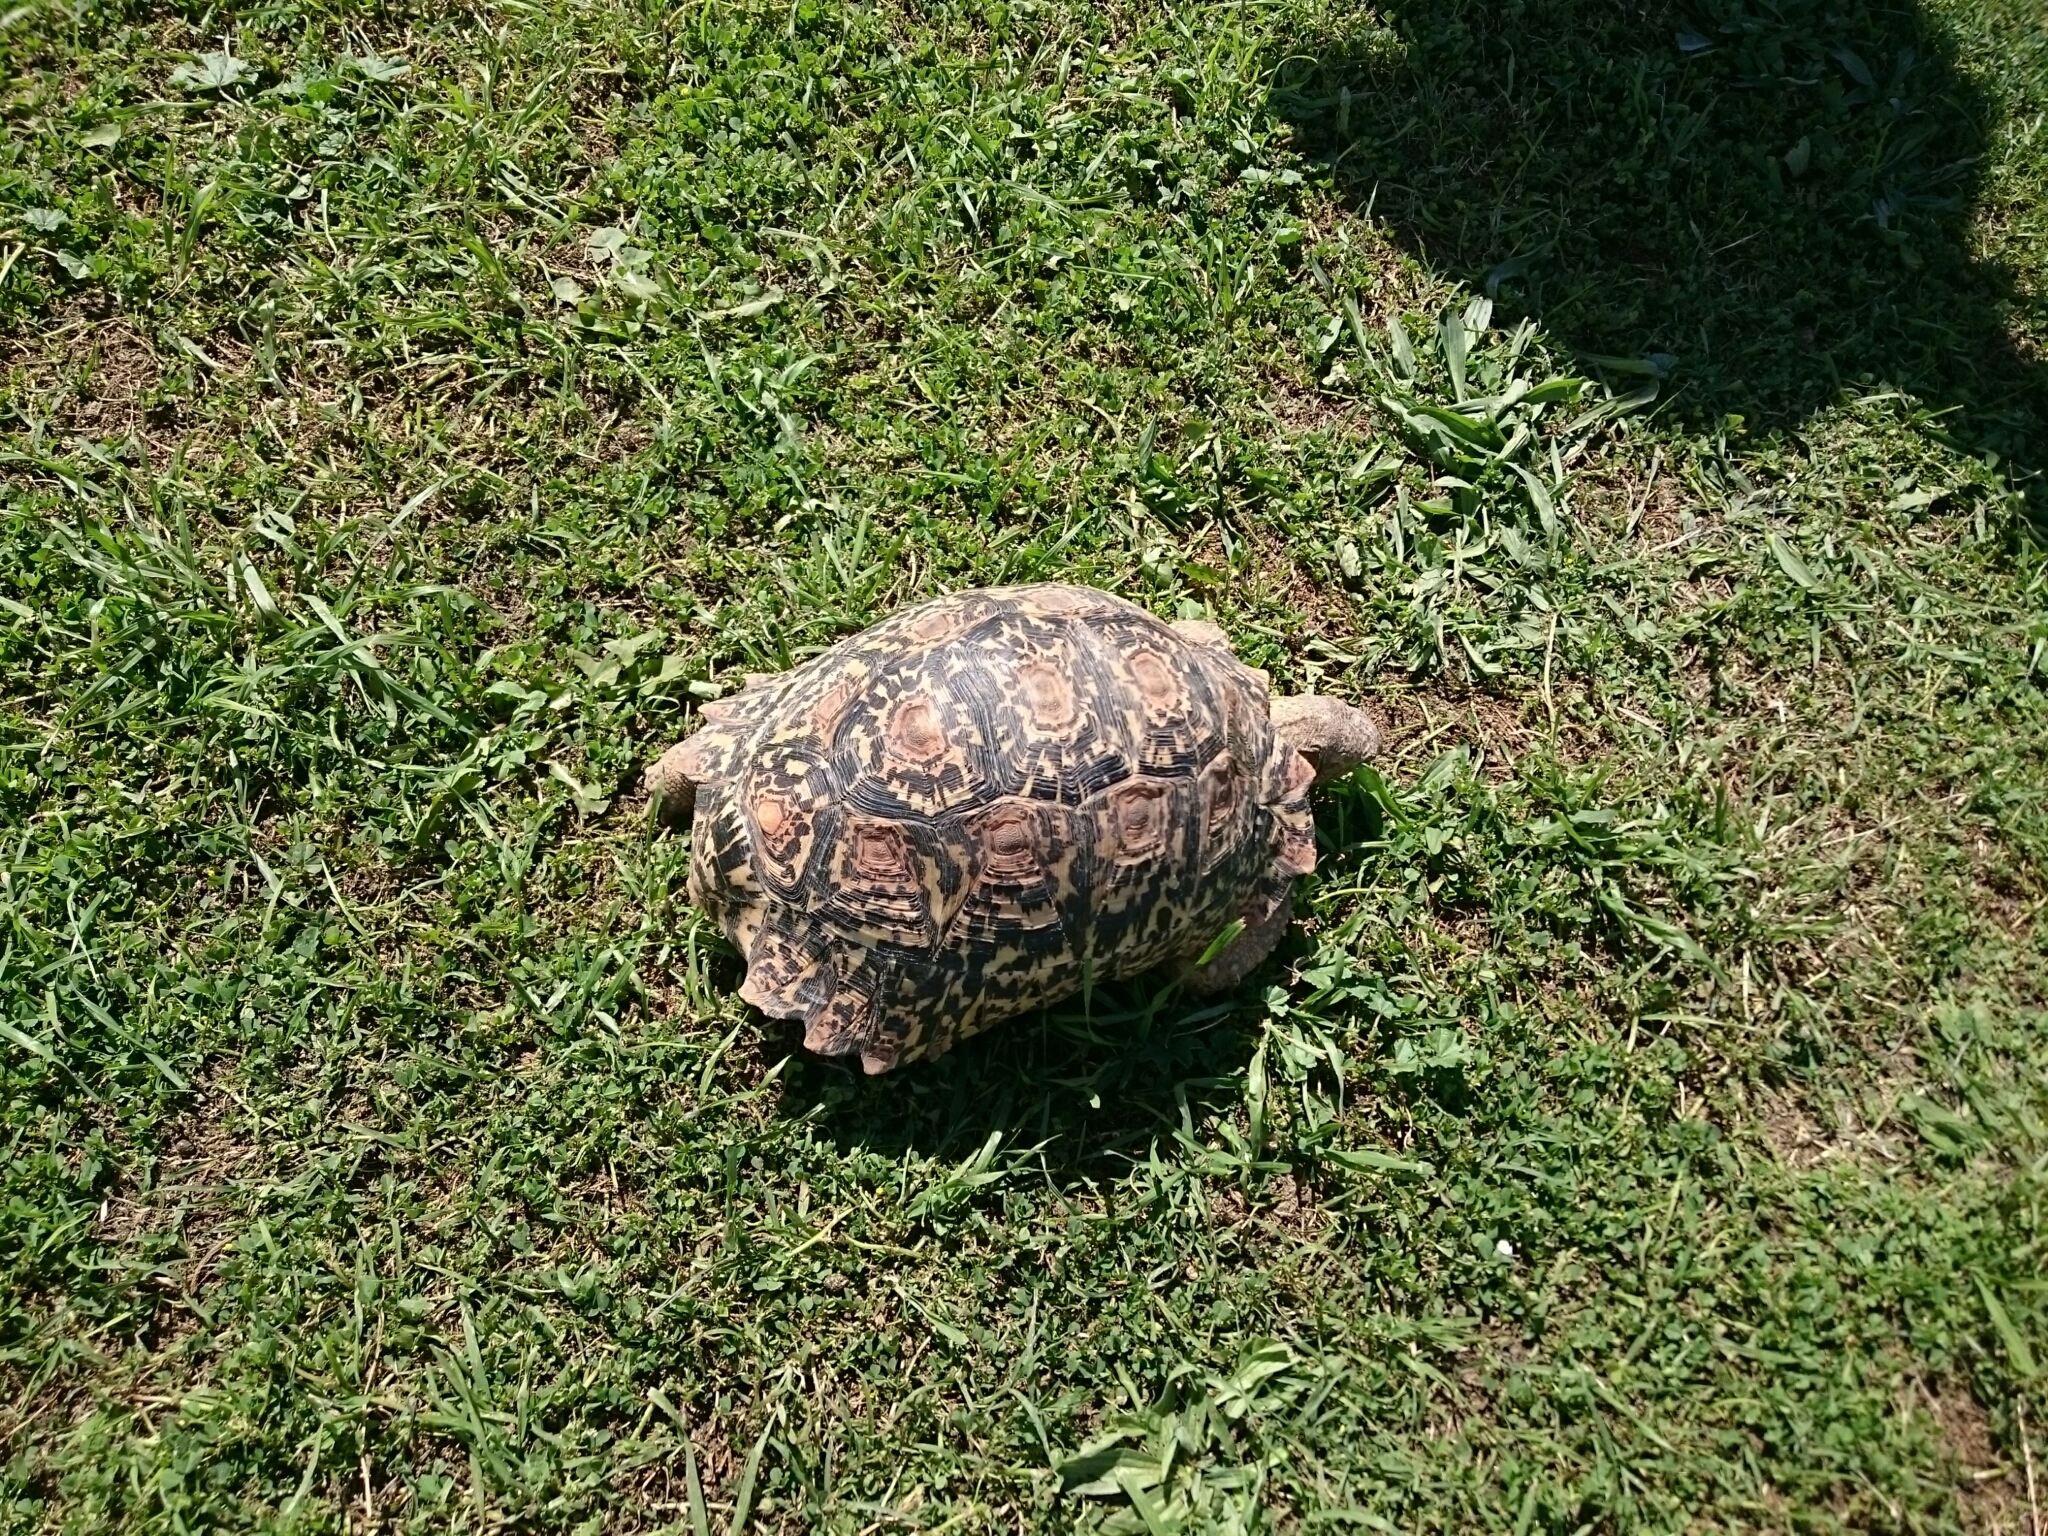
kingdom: Animalia
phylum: Chordata
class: Testudines
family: Testudinidae
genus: Stigmochelys
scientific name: Stigmochelys pardalis
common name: Leopard tortoise
